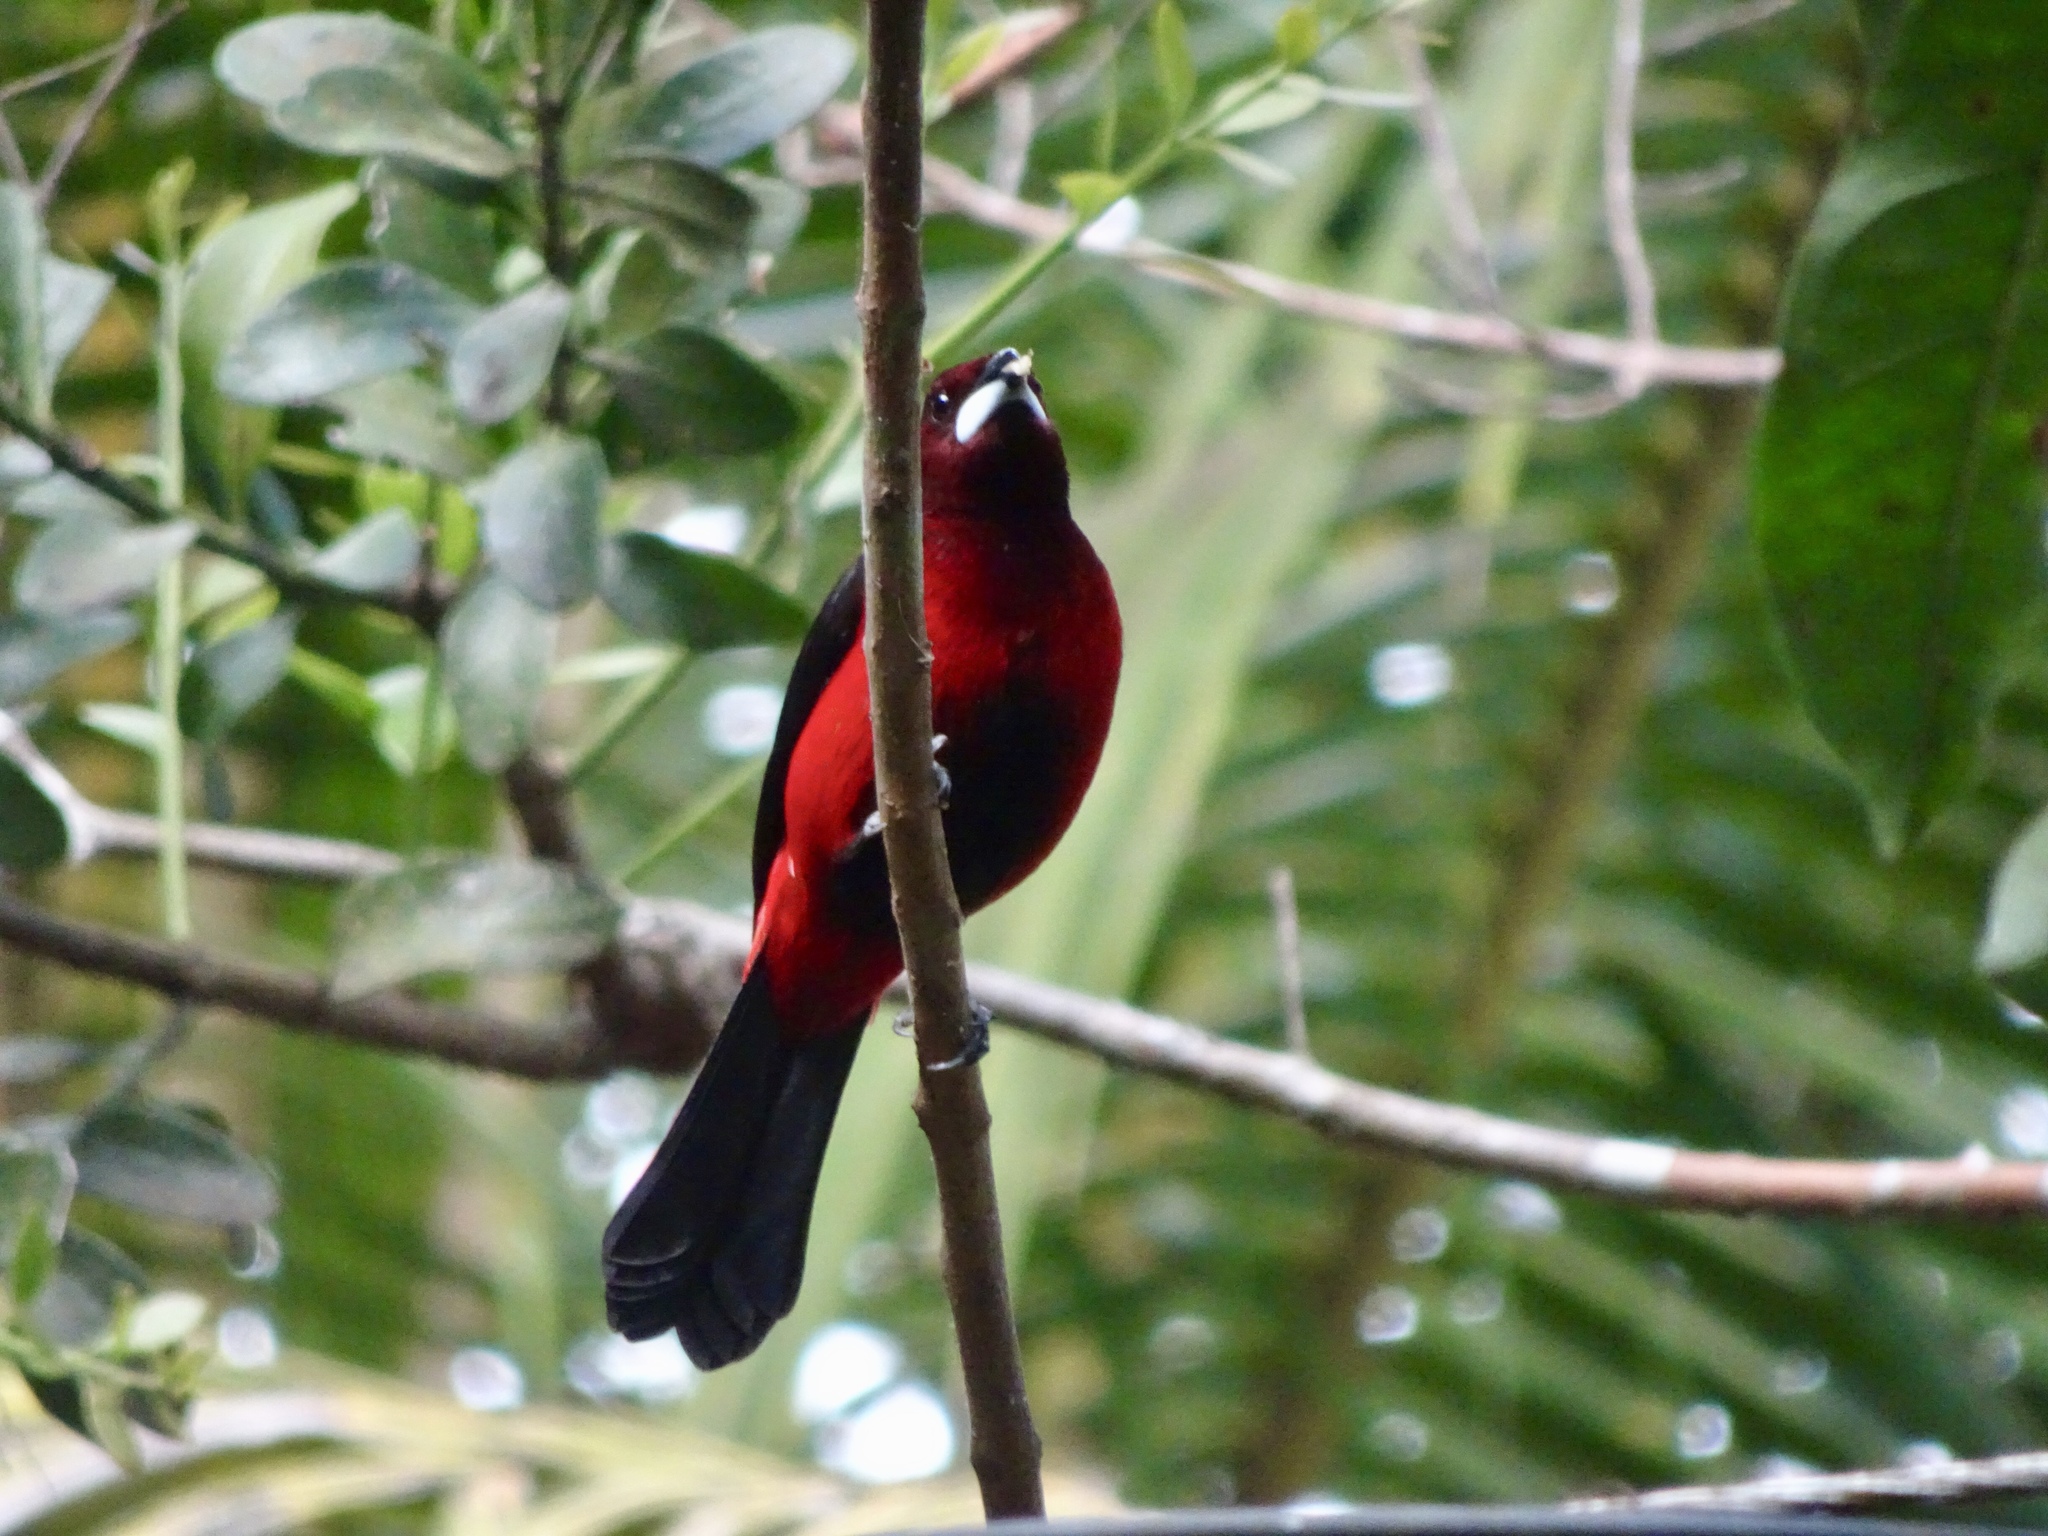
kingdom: Animalia
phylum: Chordata
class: Aves
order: Passeriformes
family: Thraupidae
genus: Ramphocelus
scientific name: Ramphocelus dimidiatus
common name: Crimson-backed tanager
